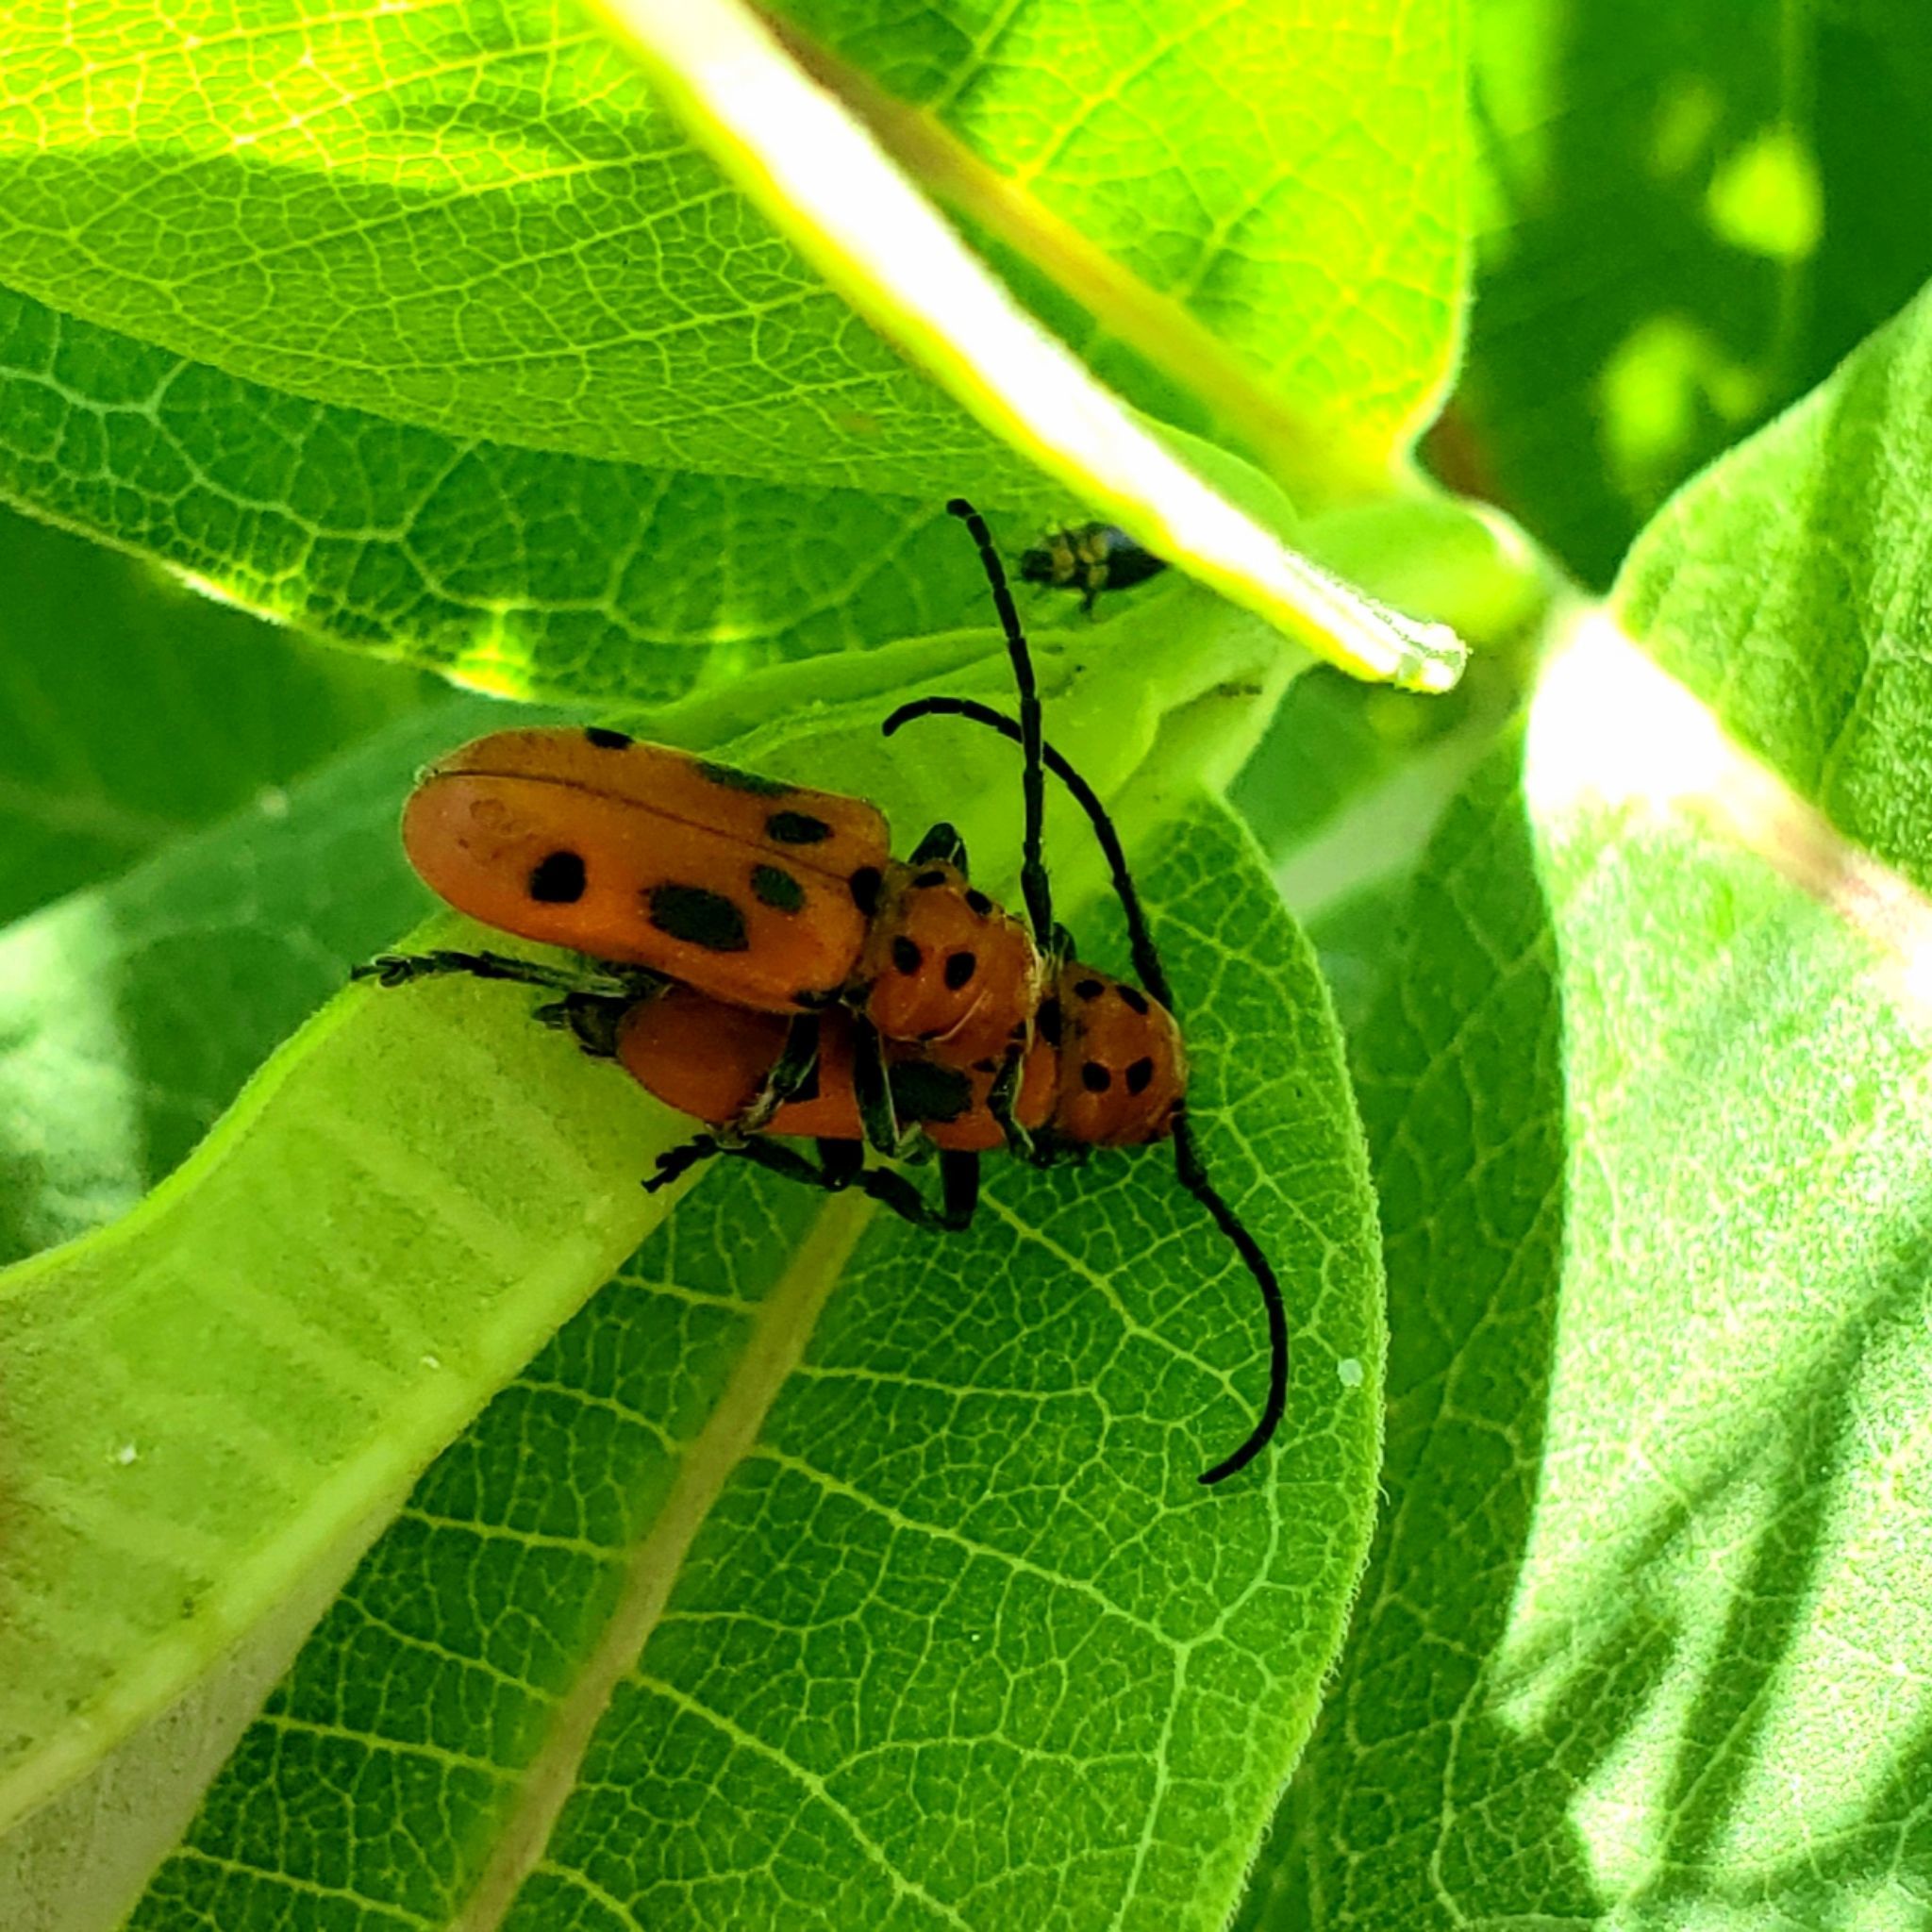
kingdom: Animalia
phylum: Arthropoda
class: Insecta
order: Coleoptera
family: Cerambycidae
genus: Tetraopes
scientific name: Tetraopes tetrophthalmus
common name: Red milkweed beetle
